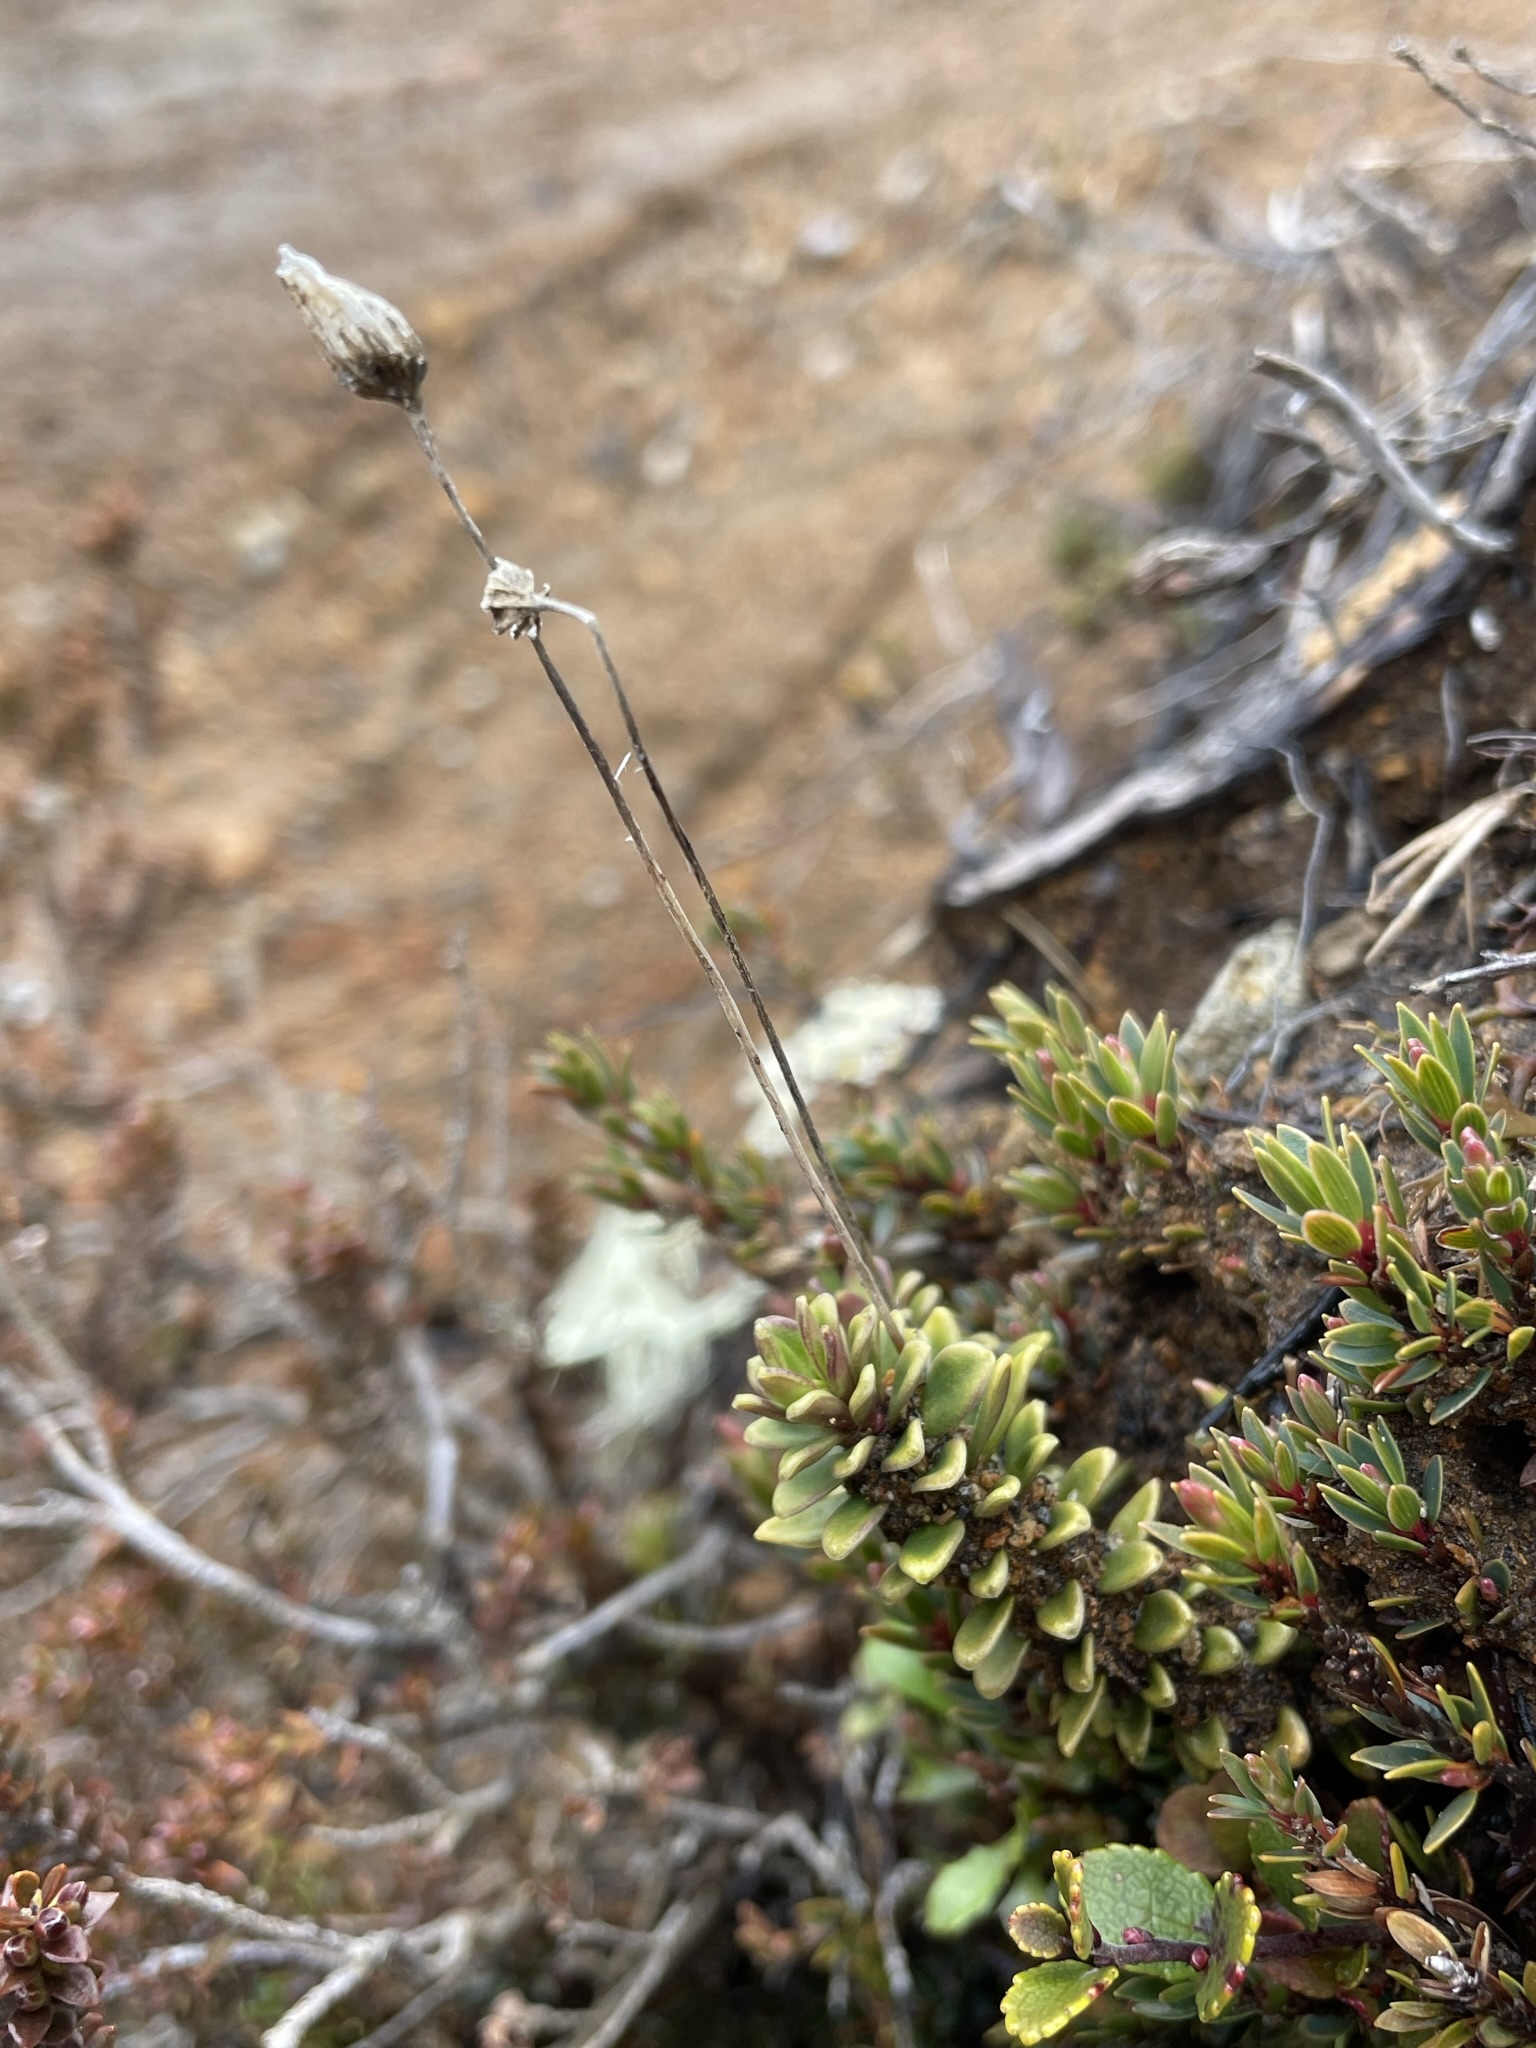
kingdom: Plantae
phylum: Tracheophyta
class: Magnoliopsida
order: Asterales
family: Stylidiaceae
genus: Forstera
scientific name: Forstera tenella
